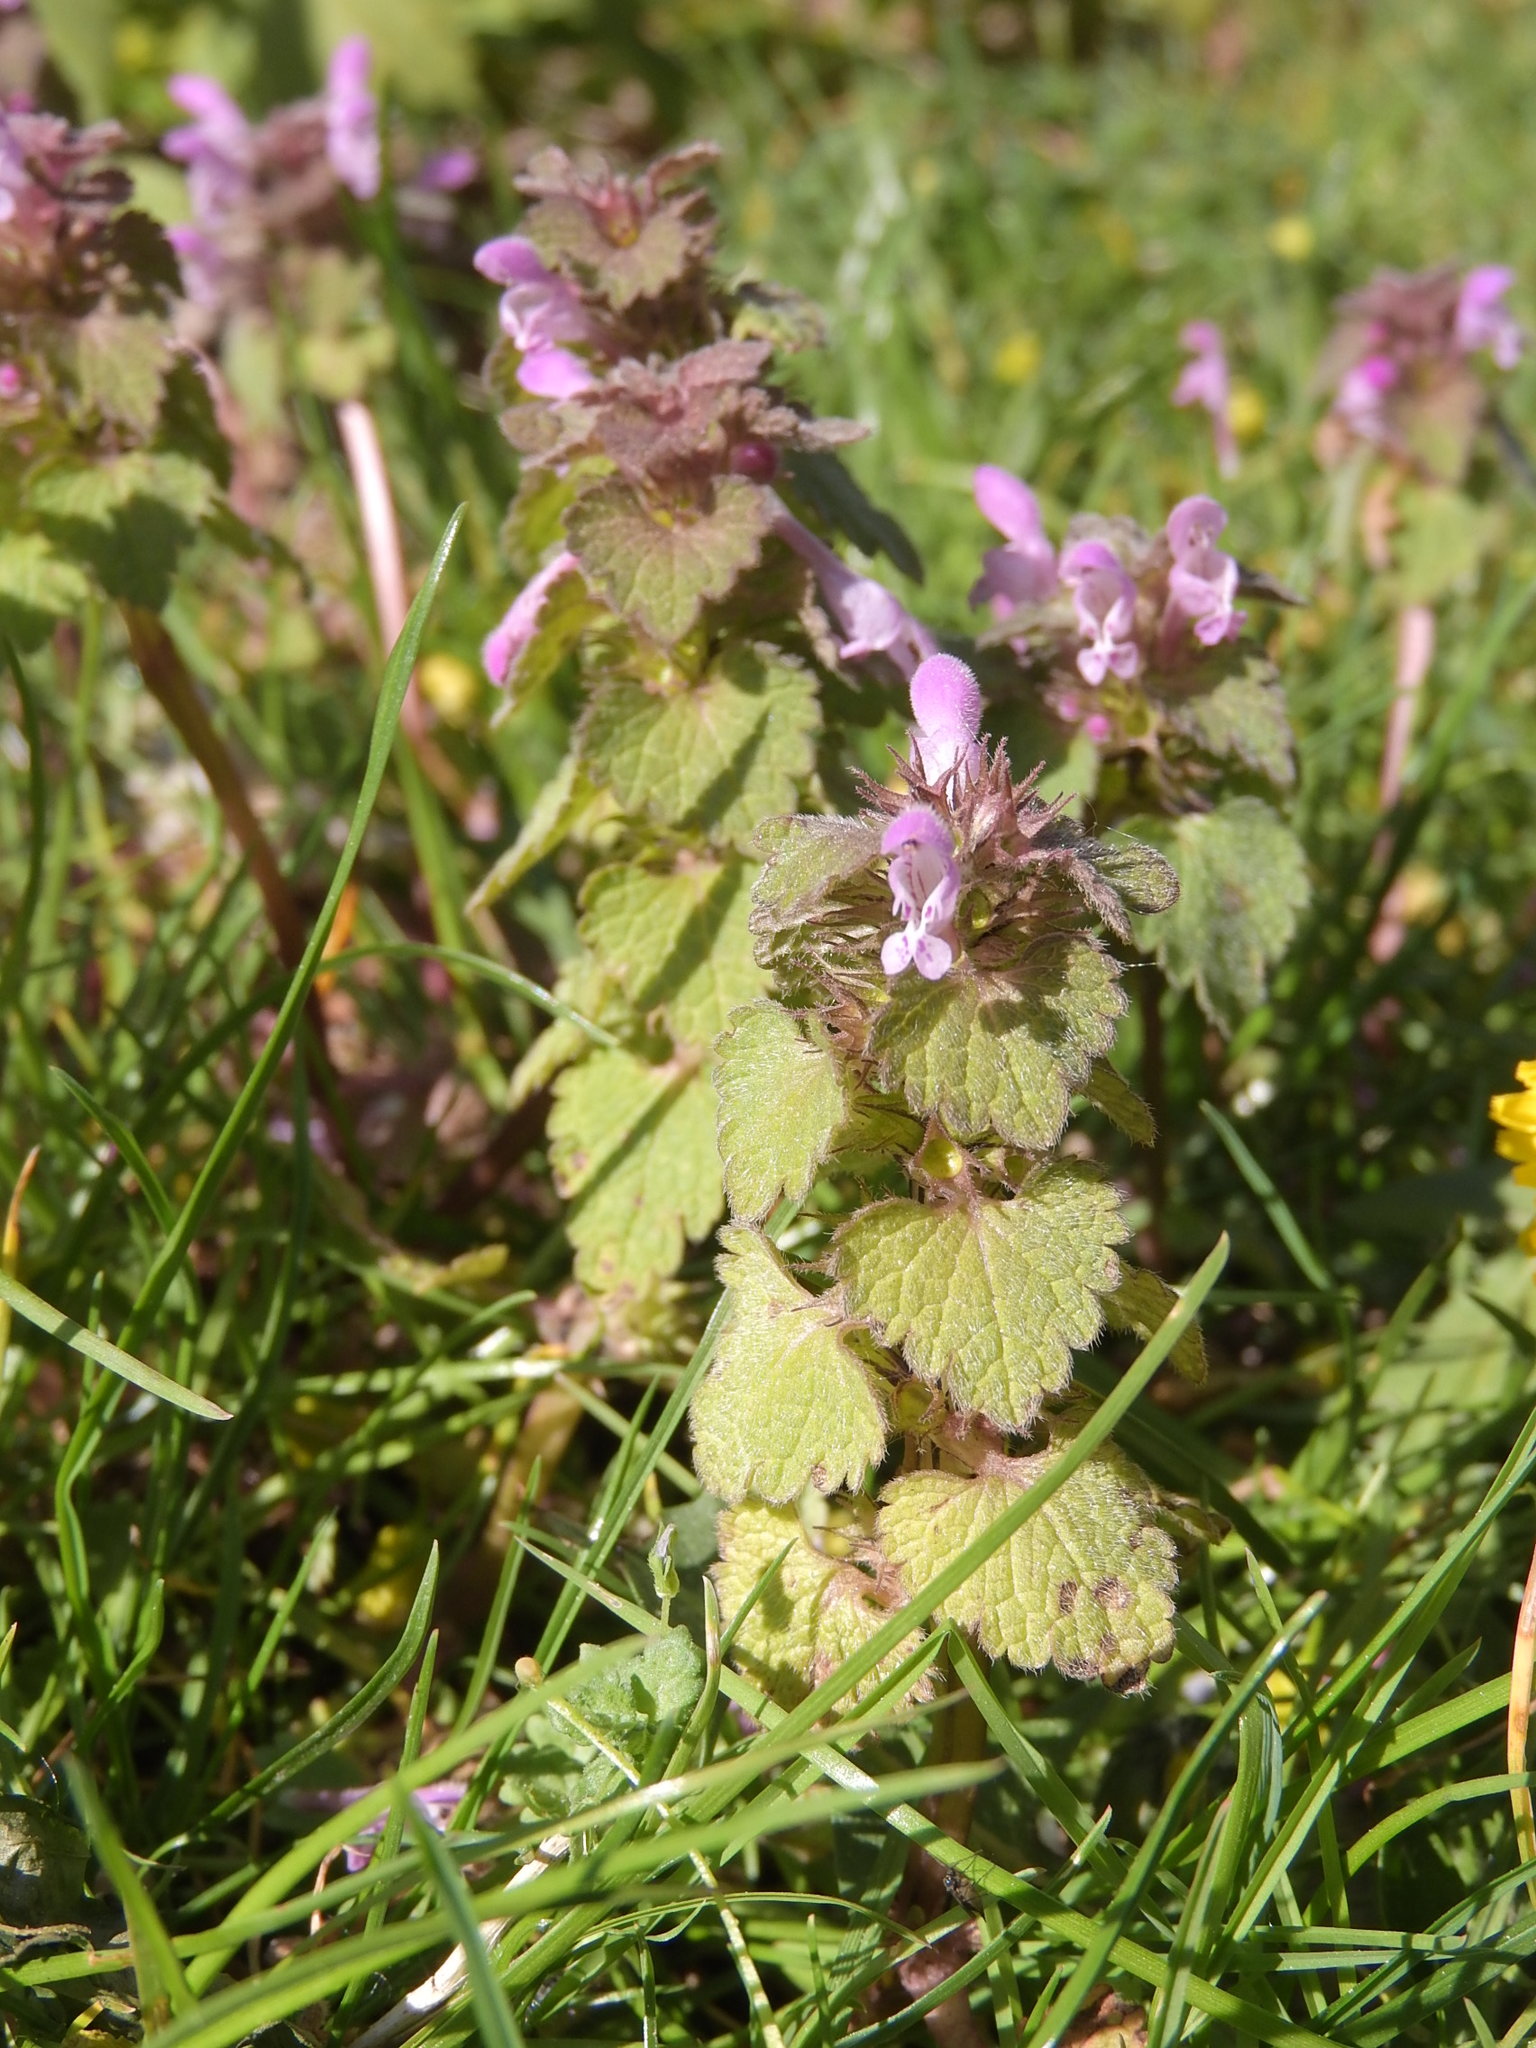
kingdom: Plantae
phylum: Tracheophyta
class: Magnoliopsida
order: Lamiales
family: Lamiaceae
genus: Lamium
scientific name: Lamium purpureum
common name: Red dead-nettle
